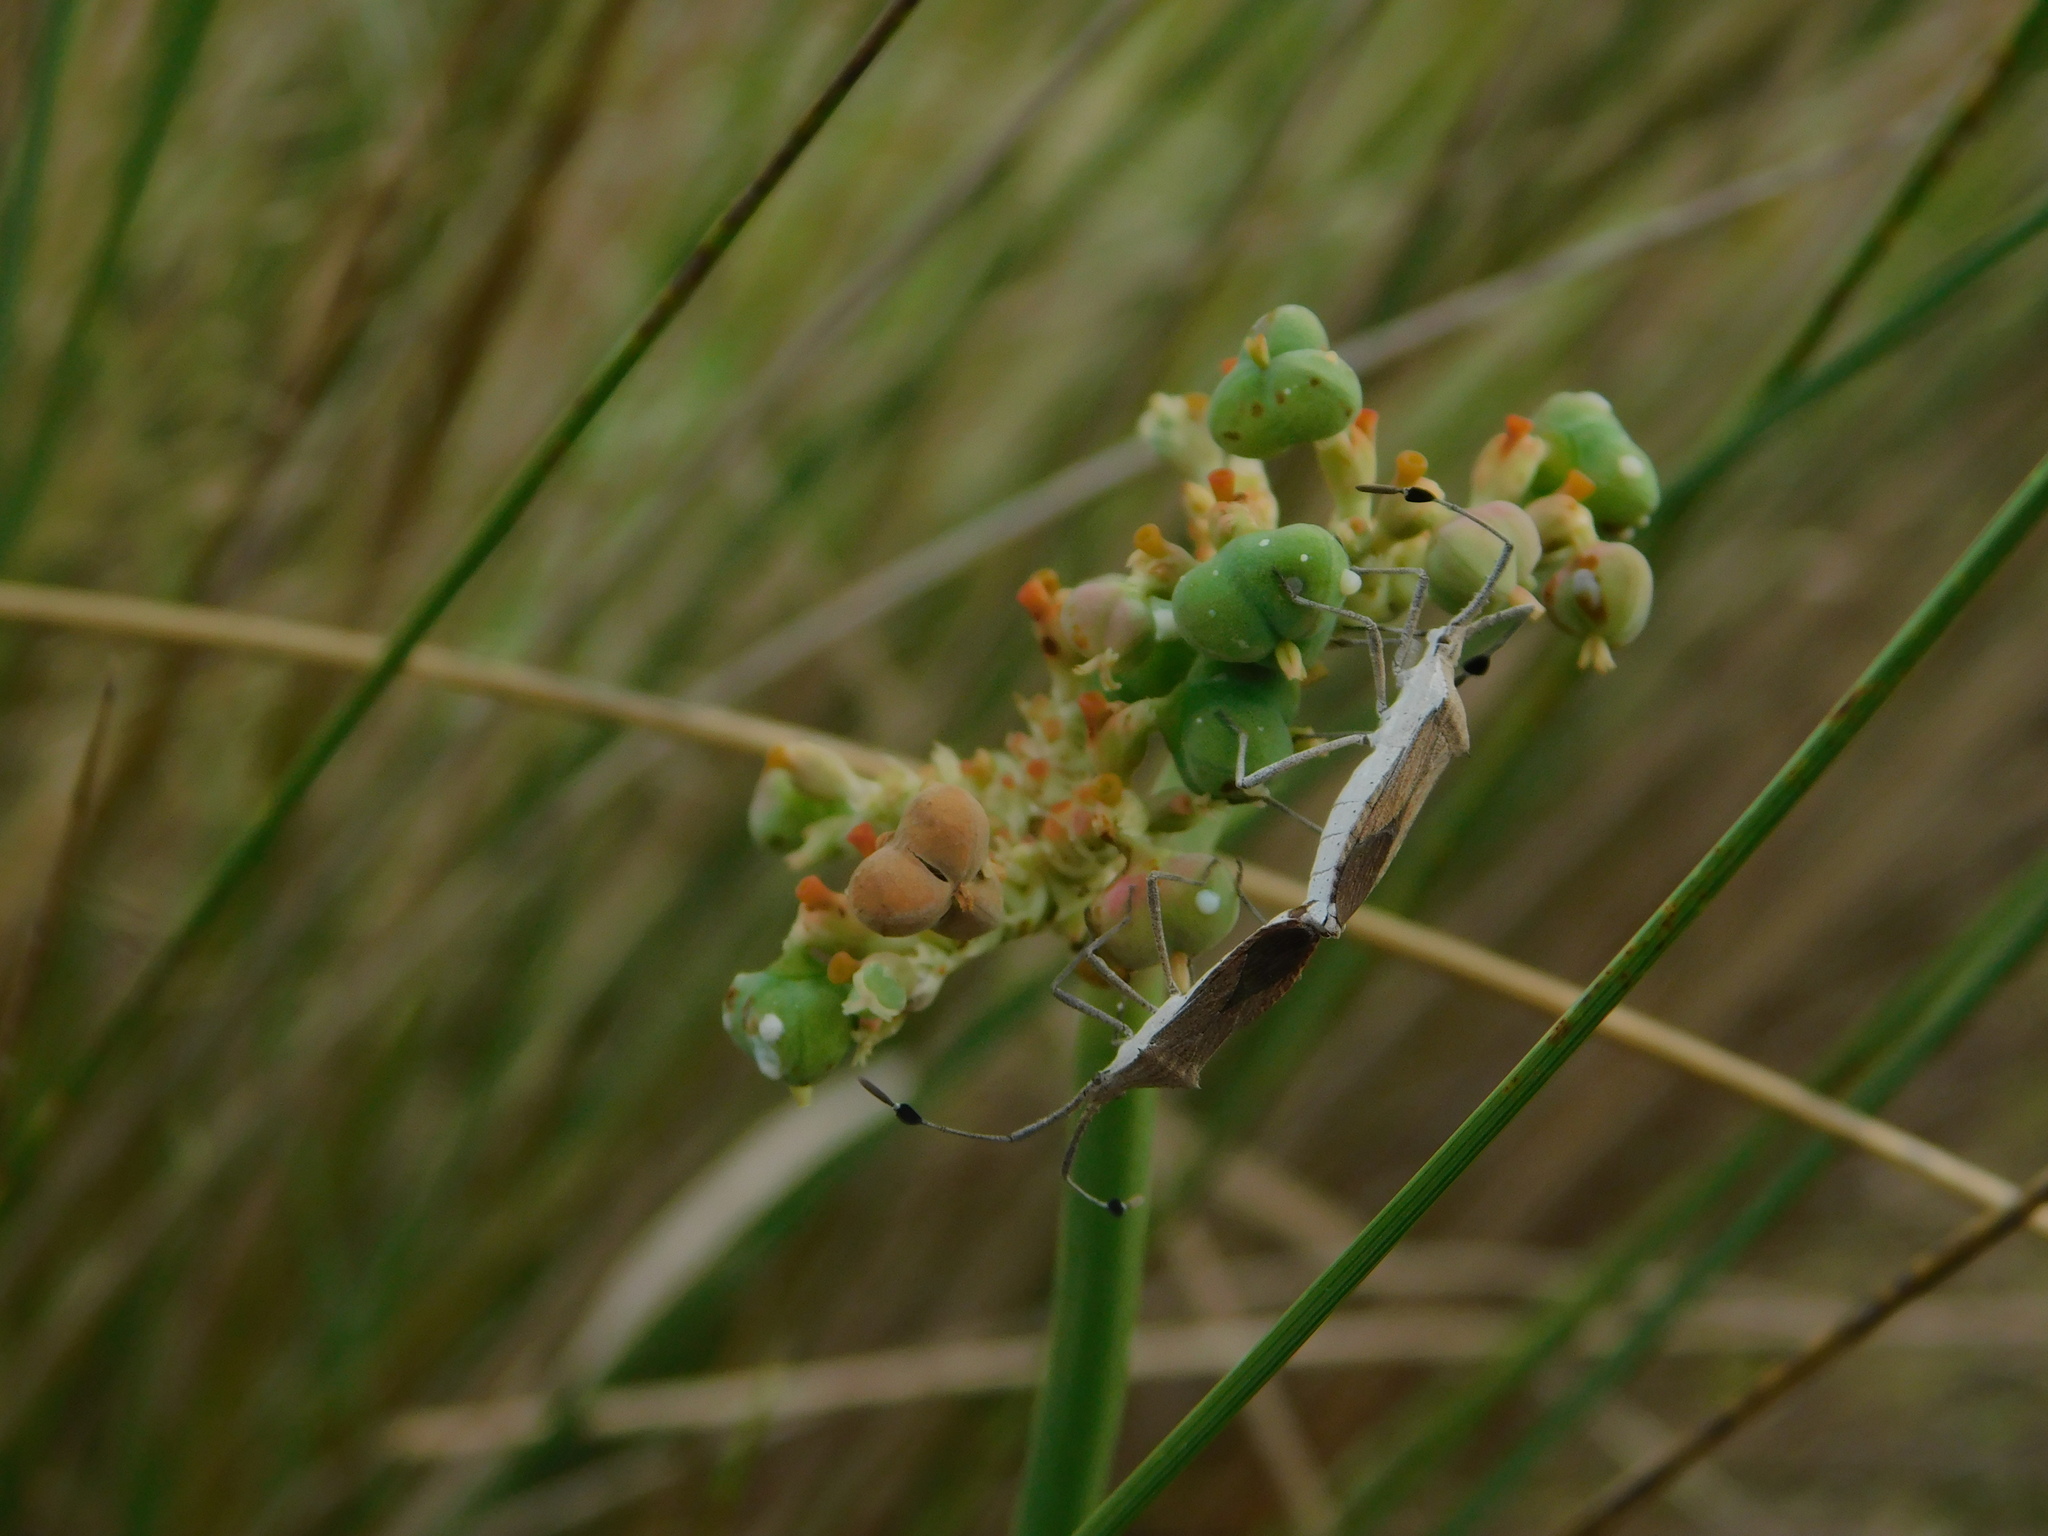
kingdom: Animalia
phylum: Arthropoda
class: Insecta
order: Hemiptera
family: Coreidae
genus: Chariesterus
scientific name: Chariesterus antennator
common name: Flat horned coreid
